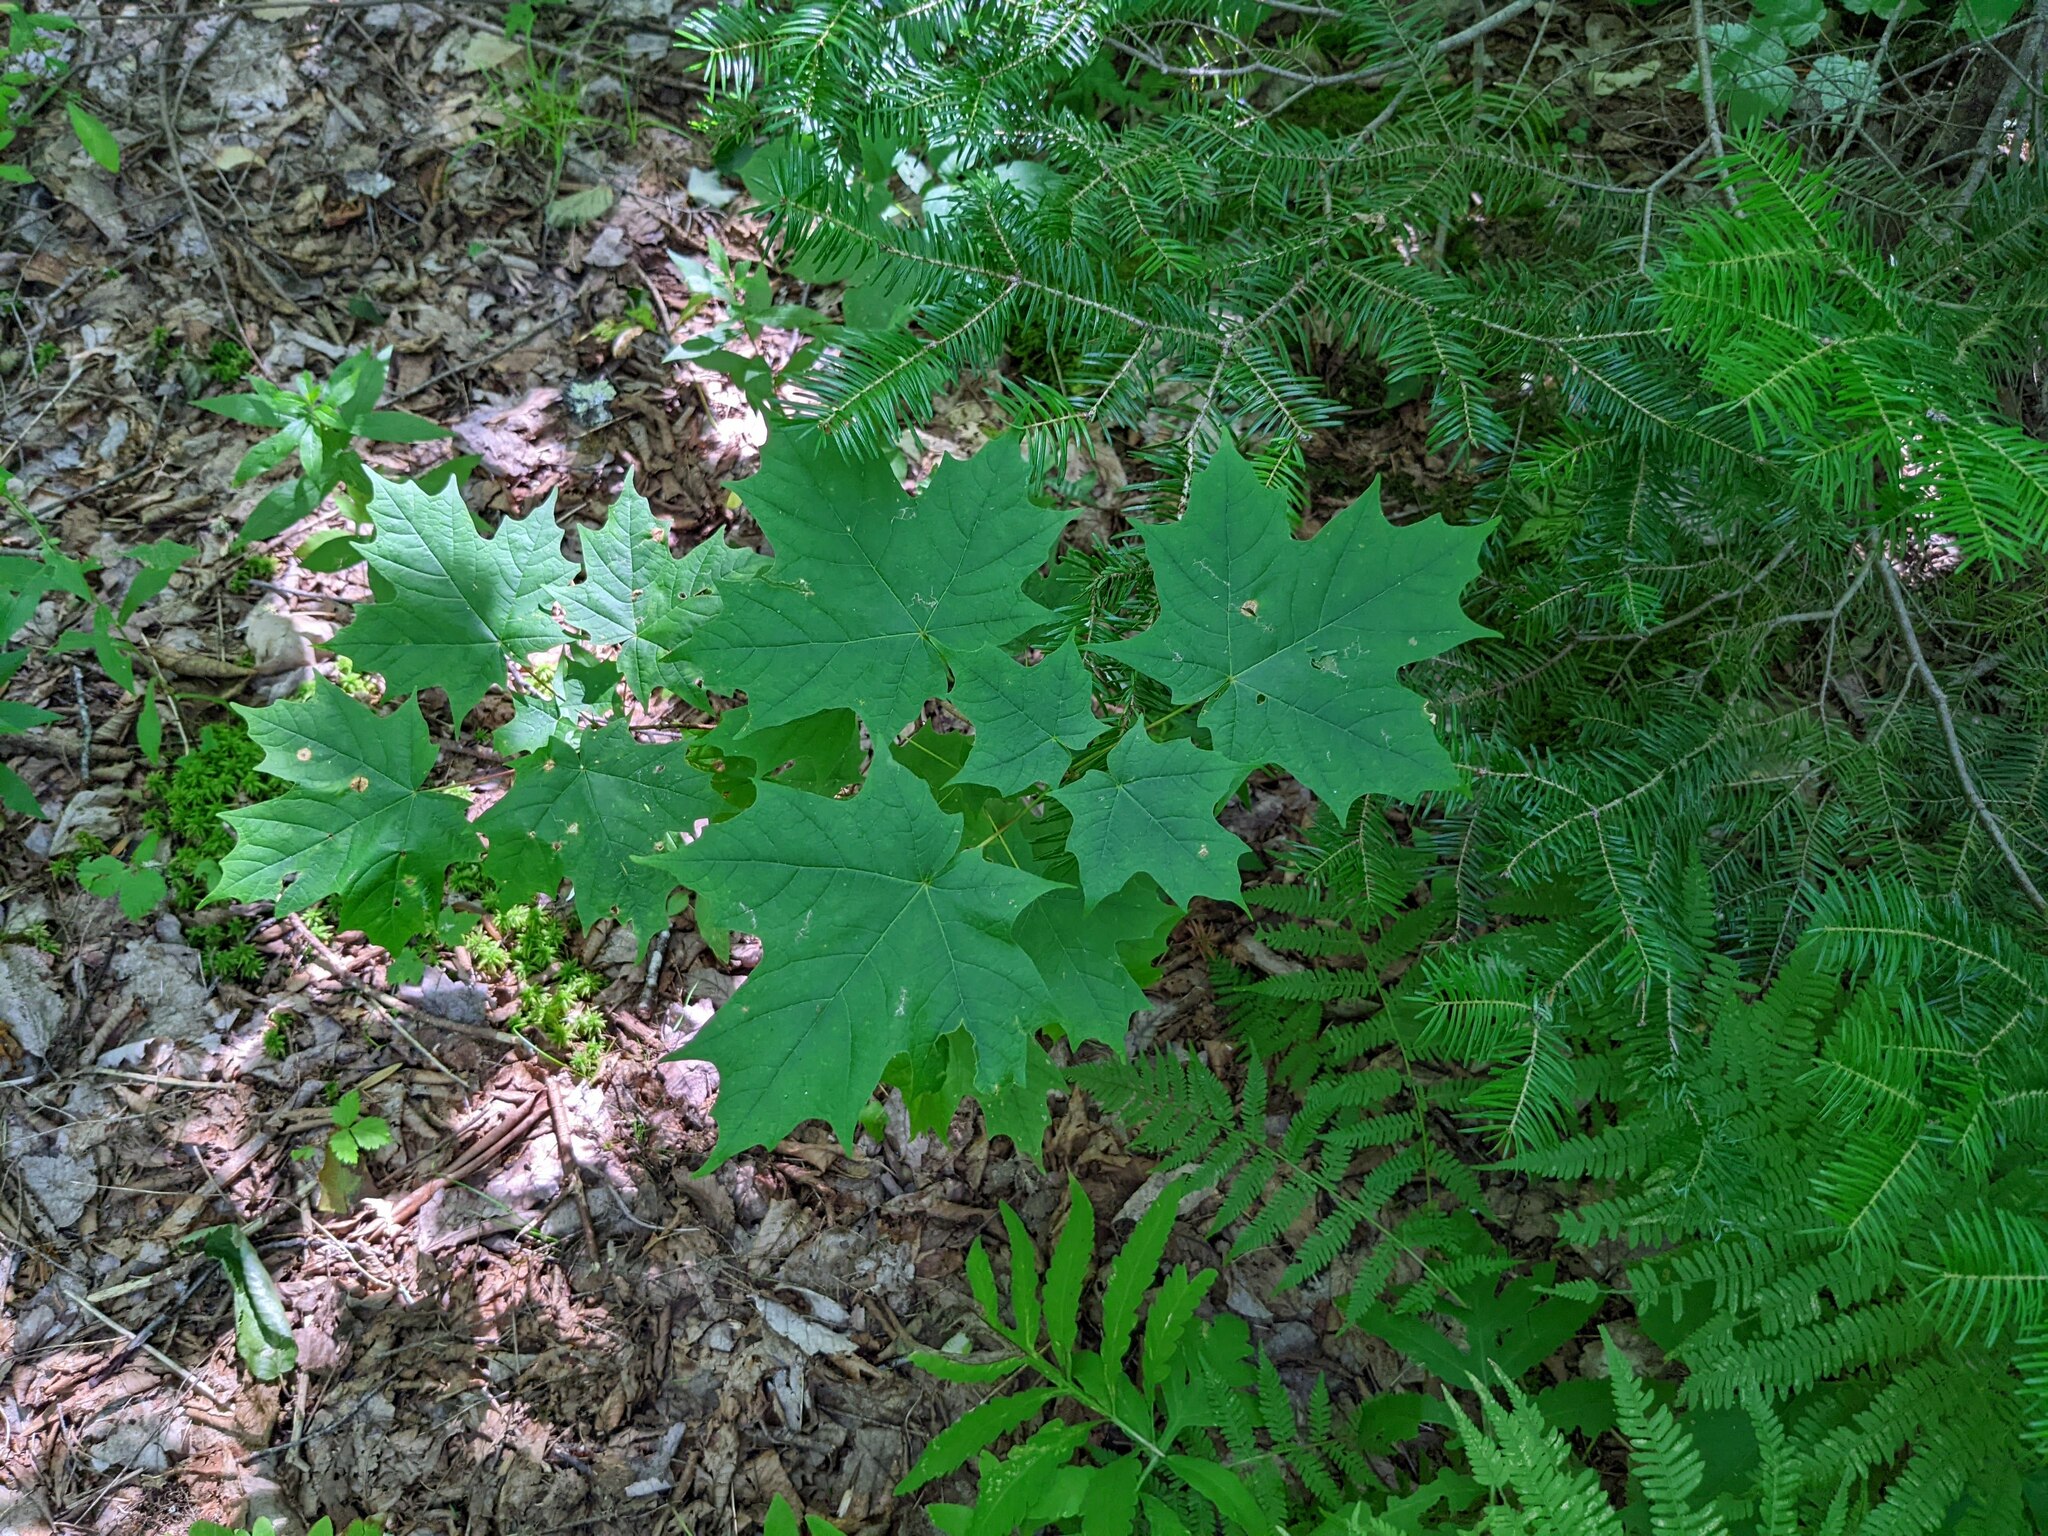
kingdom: Plantae
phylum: Tracheophyta
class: Magnoliopsida
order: Sapindales
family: Sapindaceae
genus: Acer
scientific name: Acer saccharum
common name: Sugar maple
